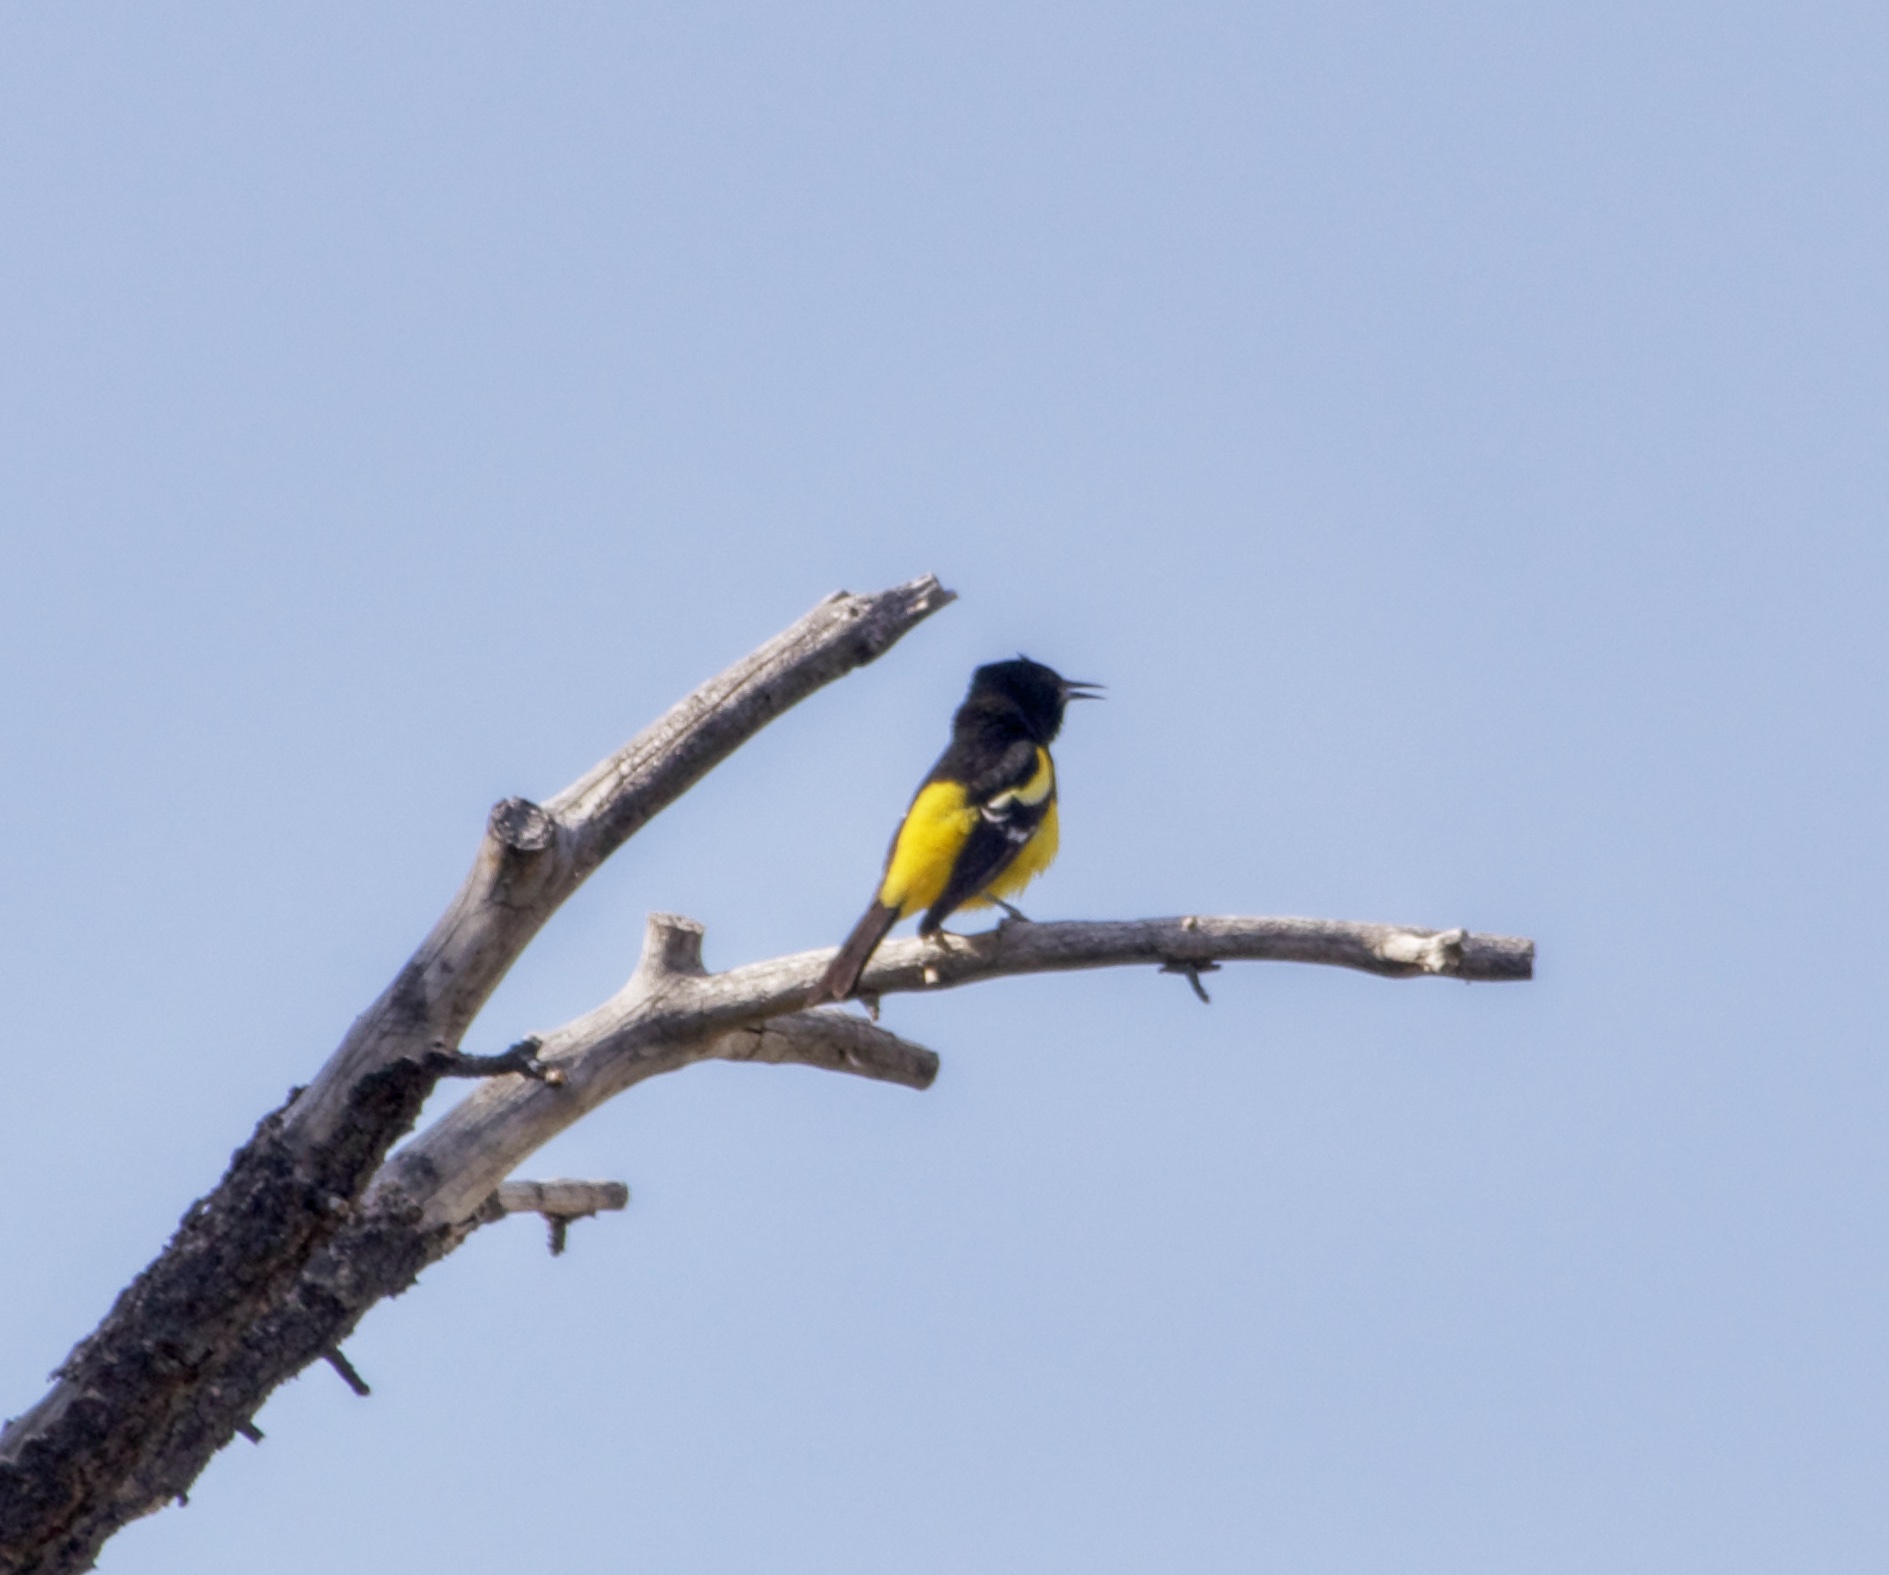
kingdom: Animalia
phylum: Chordata
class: Aves
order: Passeriformes
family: Icteridae
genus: Icterus
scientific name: Icterus parisorum
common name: Scott's oriole
